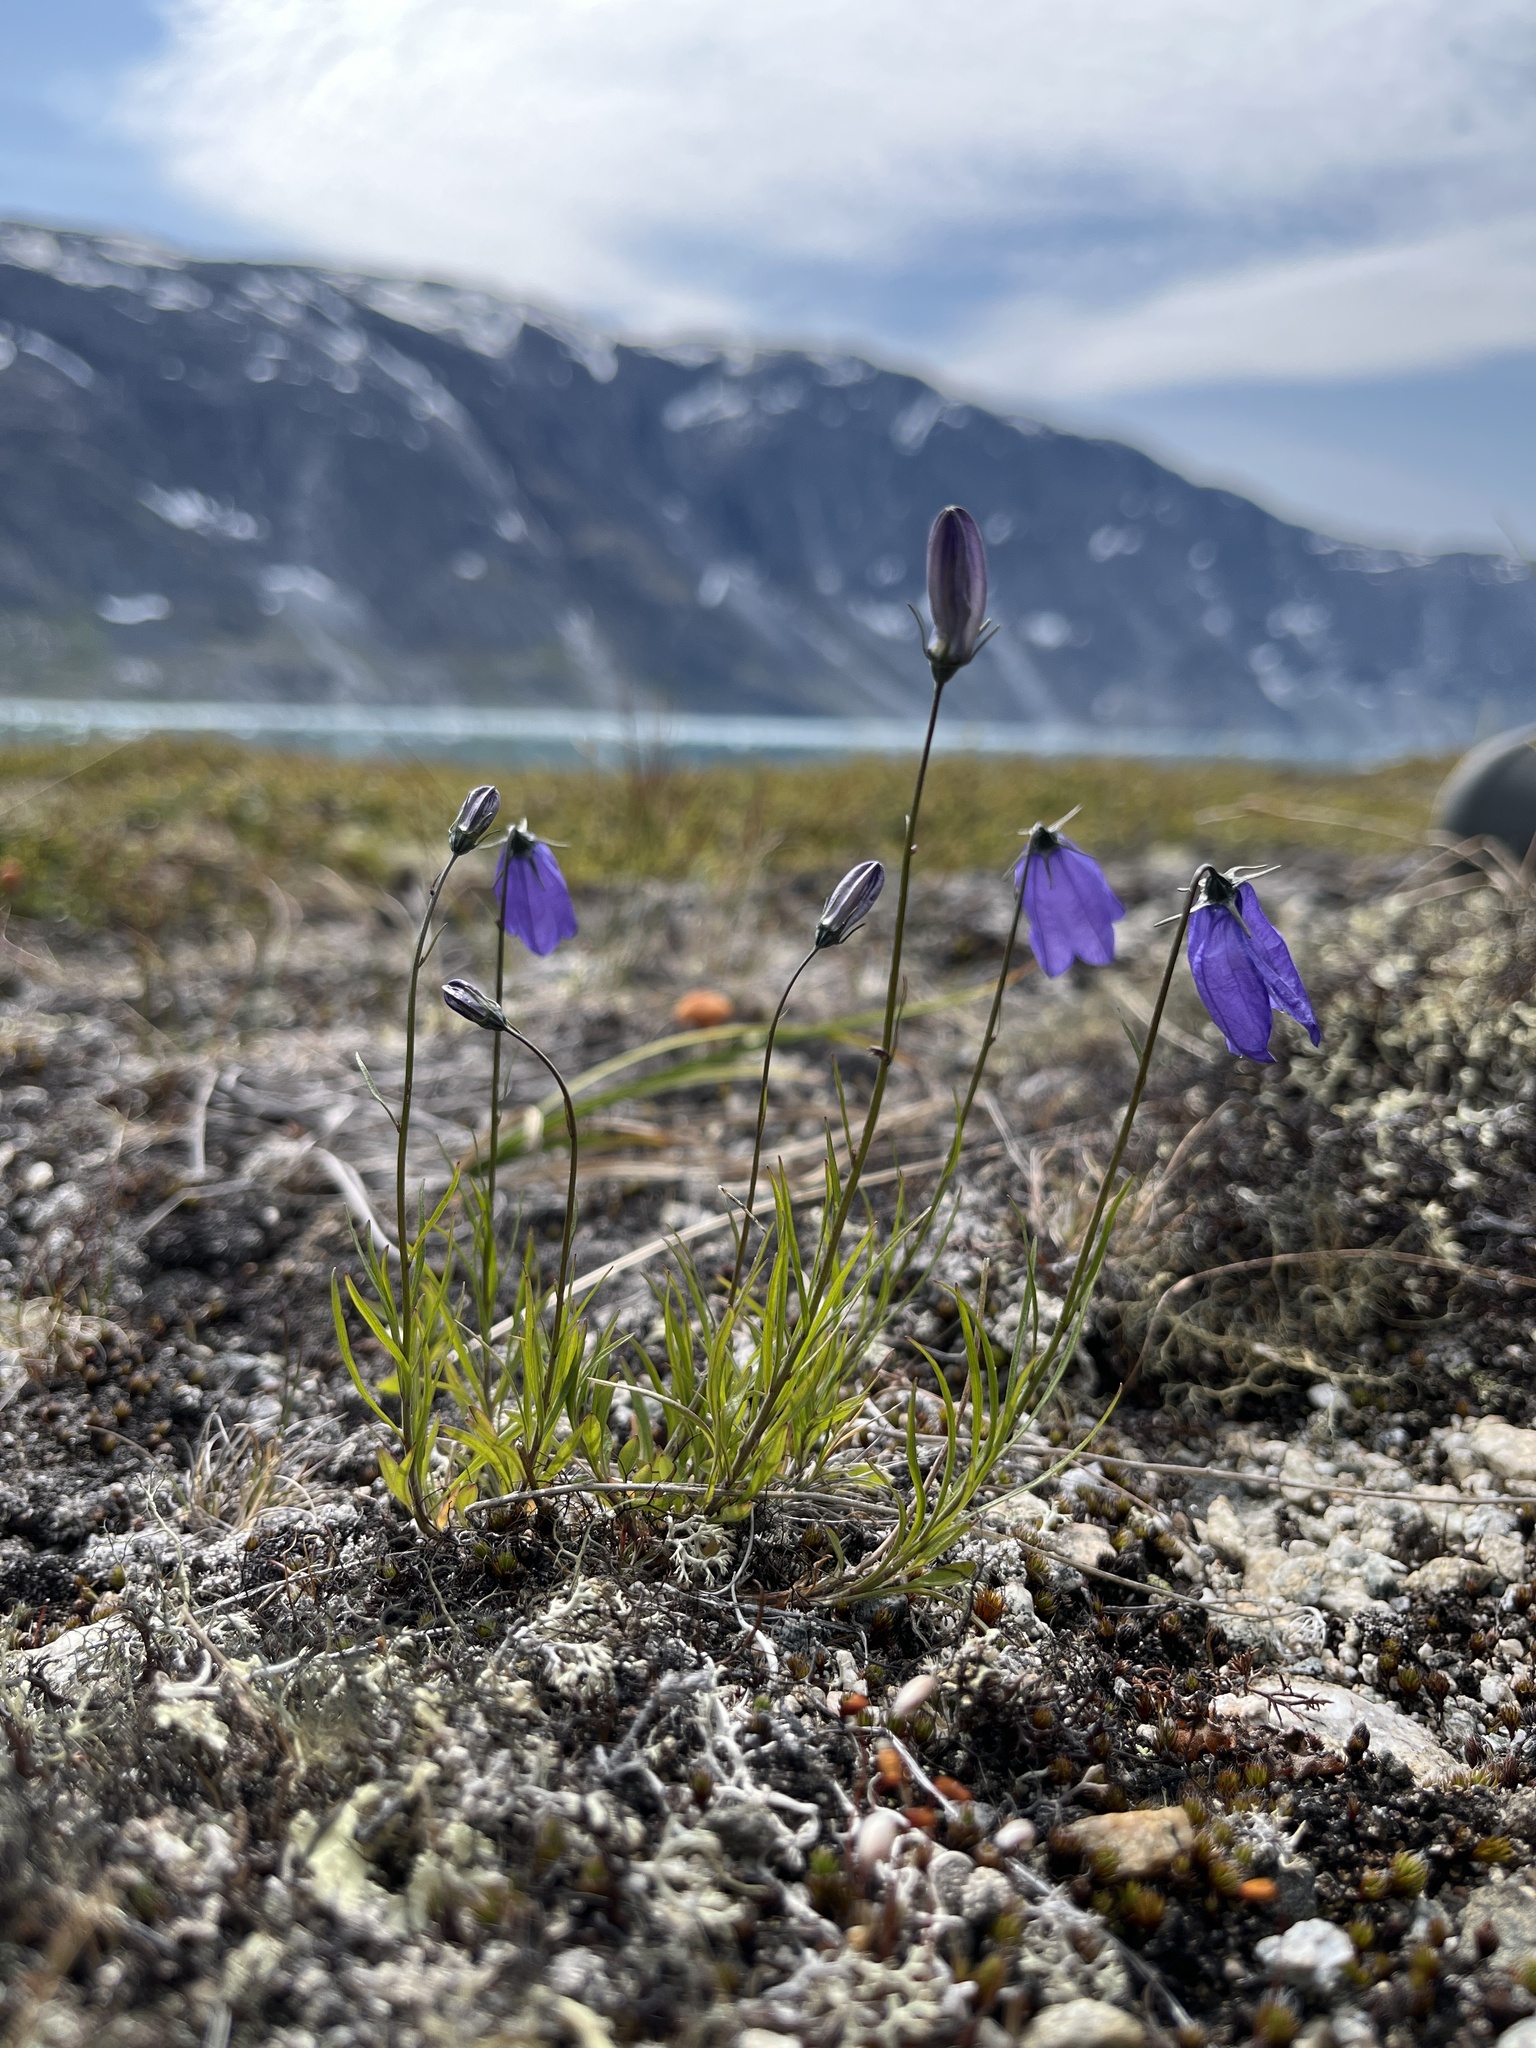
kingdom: Plantae
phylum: Tracheophyta
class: Magnoliopsida
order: Asterales
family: Campanulaceae
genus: Campanula
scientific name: Campanula giesekiana
